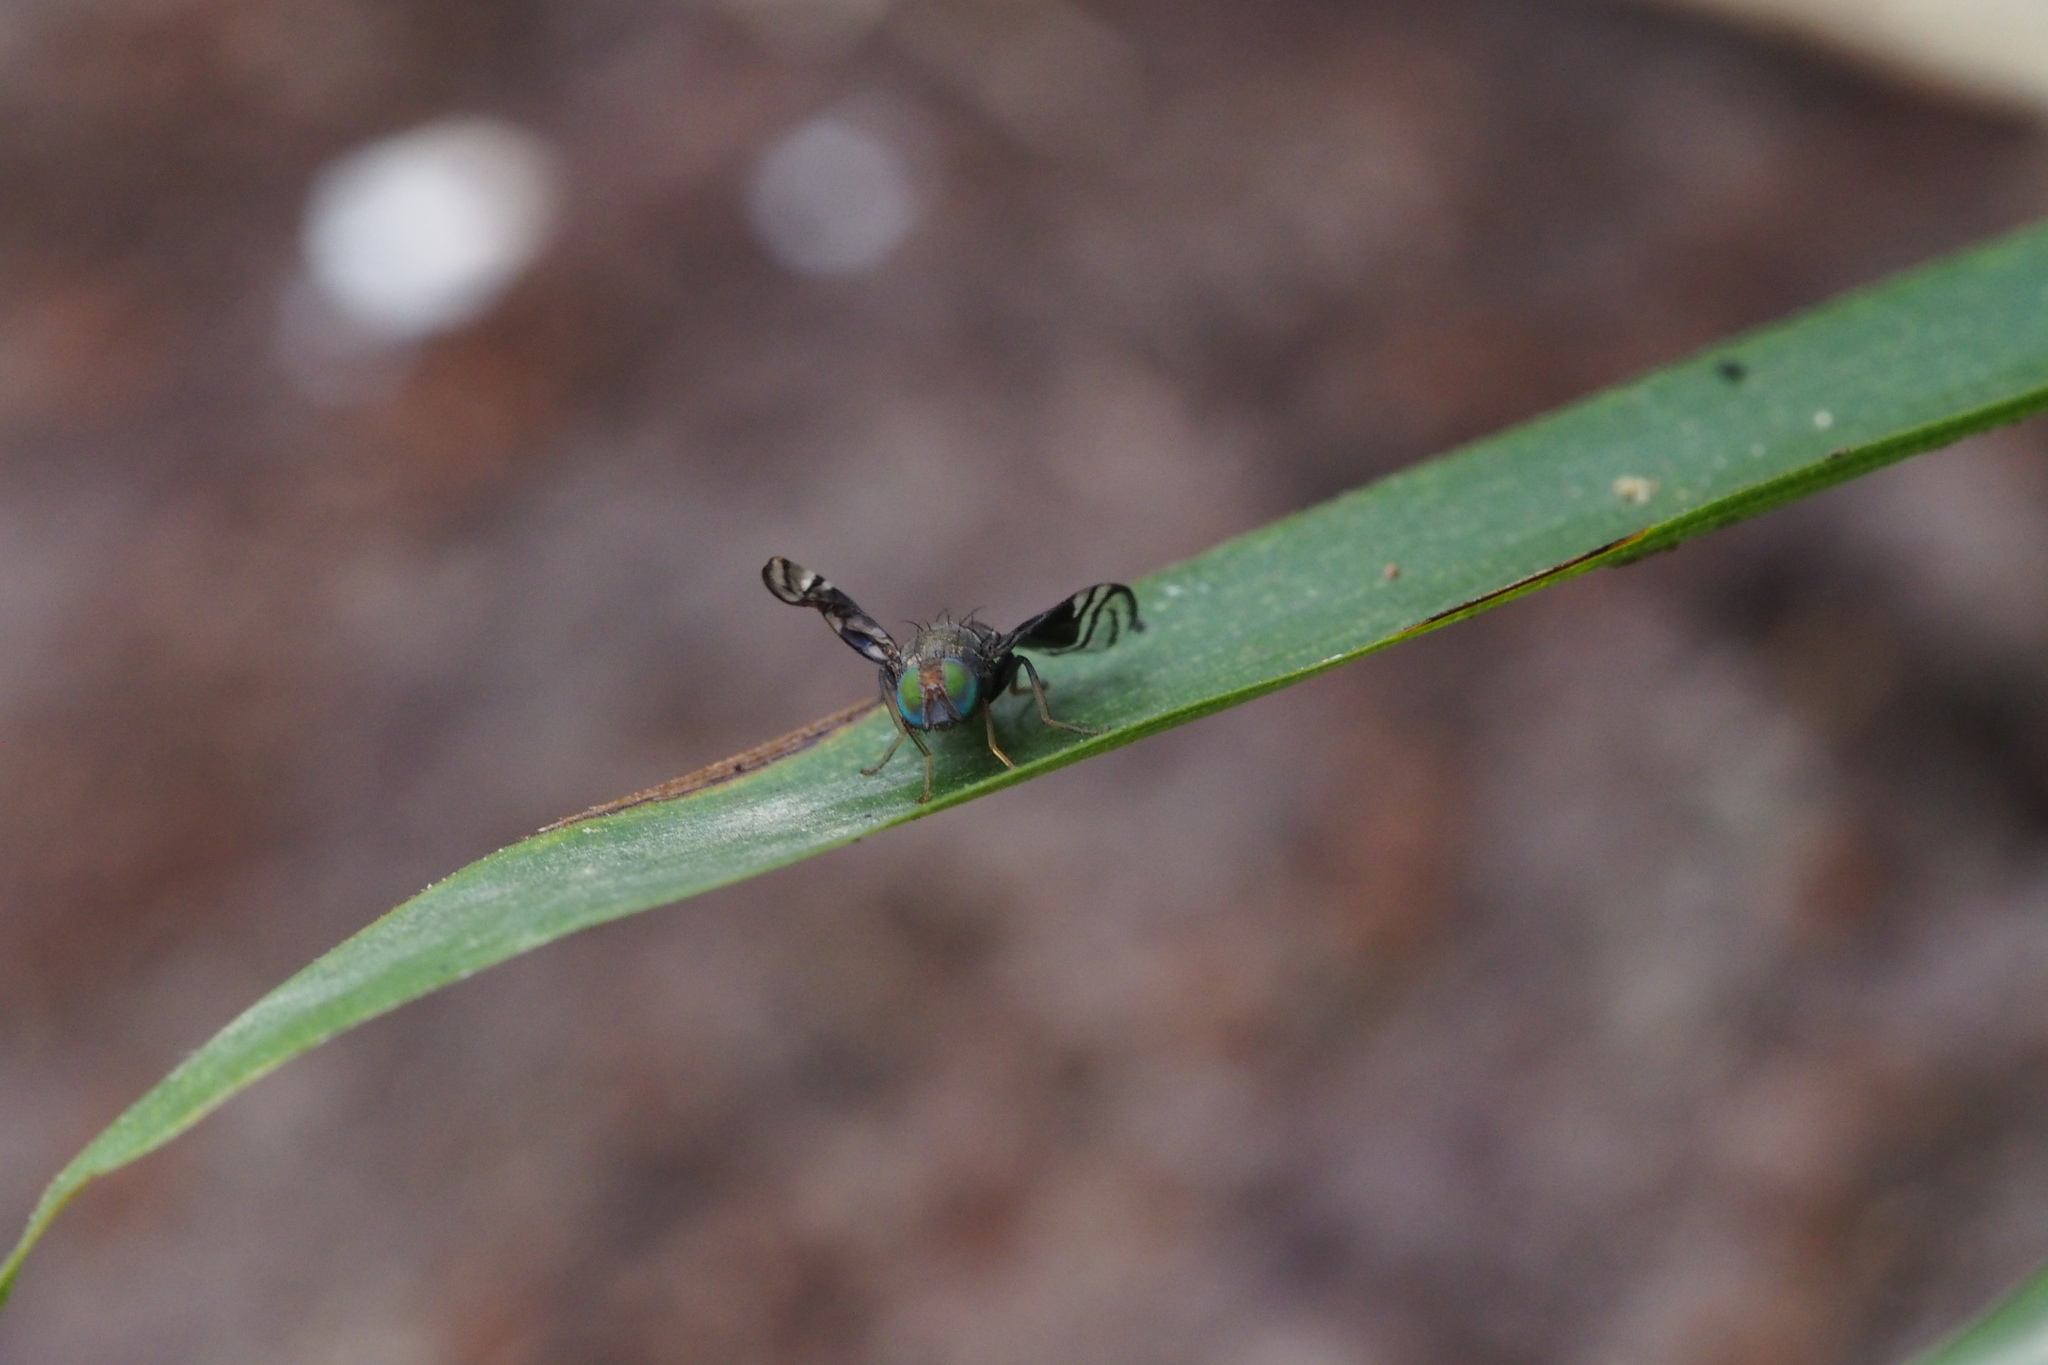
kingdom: Animalia
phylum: Arthropoda
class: Insecta
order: Diptera
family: Tephritidae
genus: Philophylla
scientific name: Philophylla fossata
